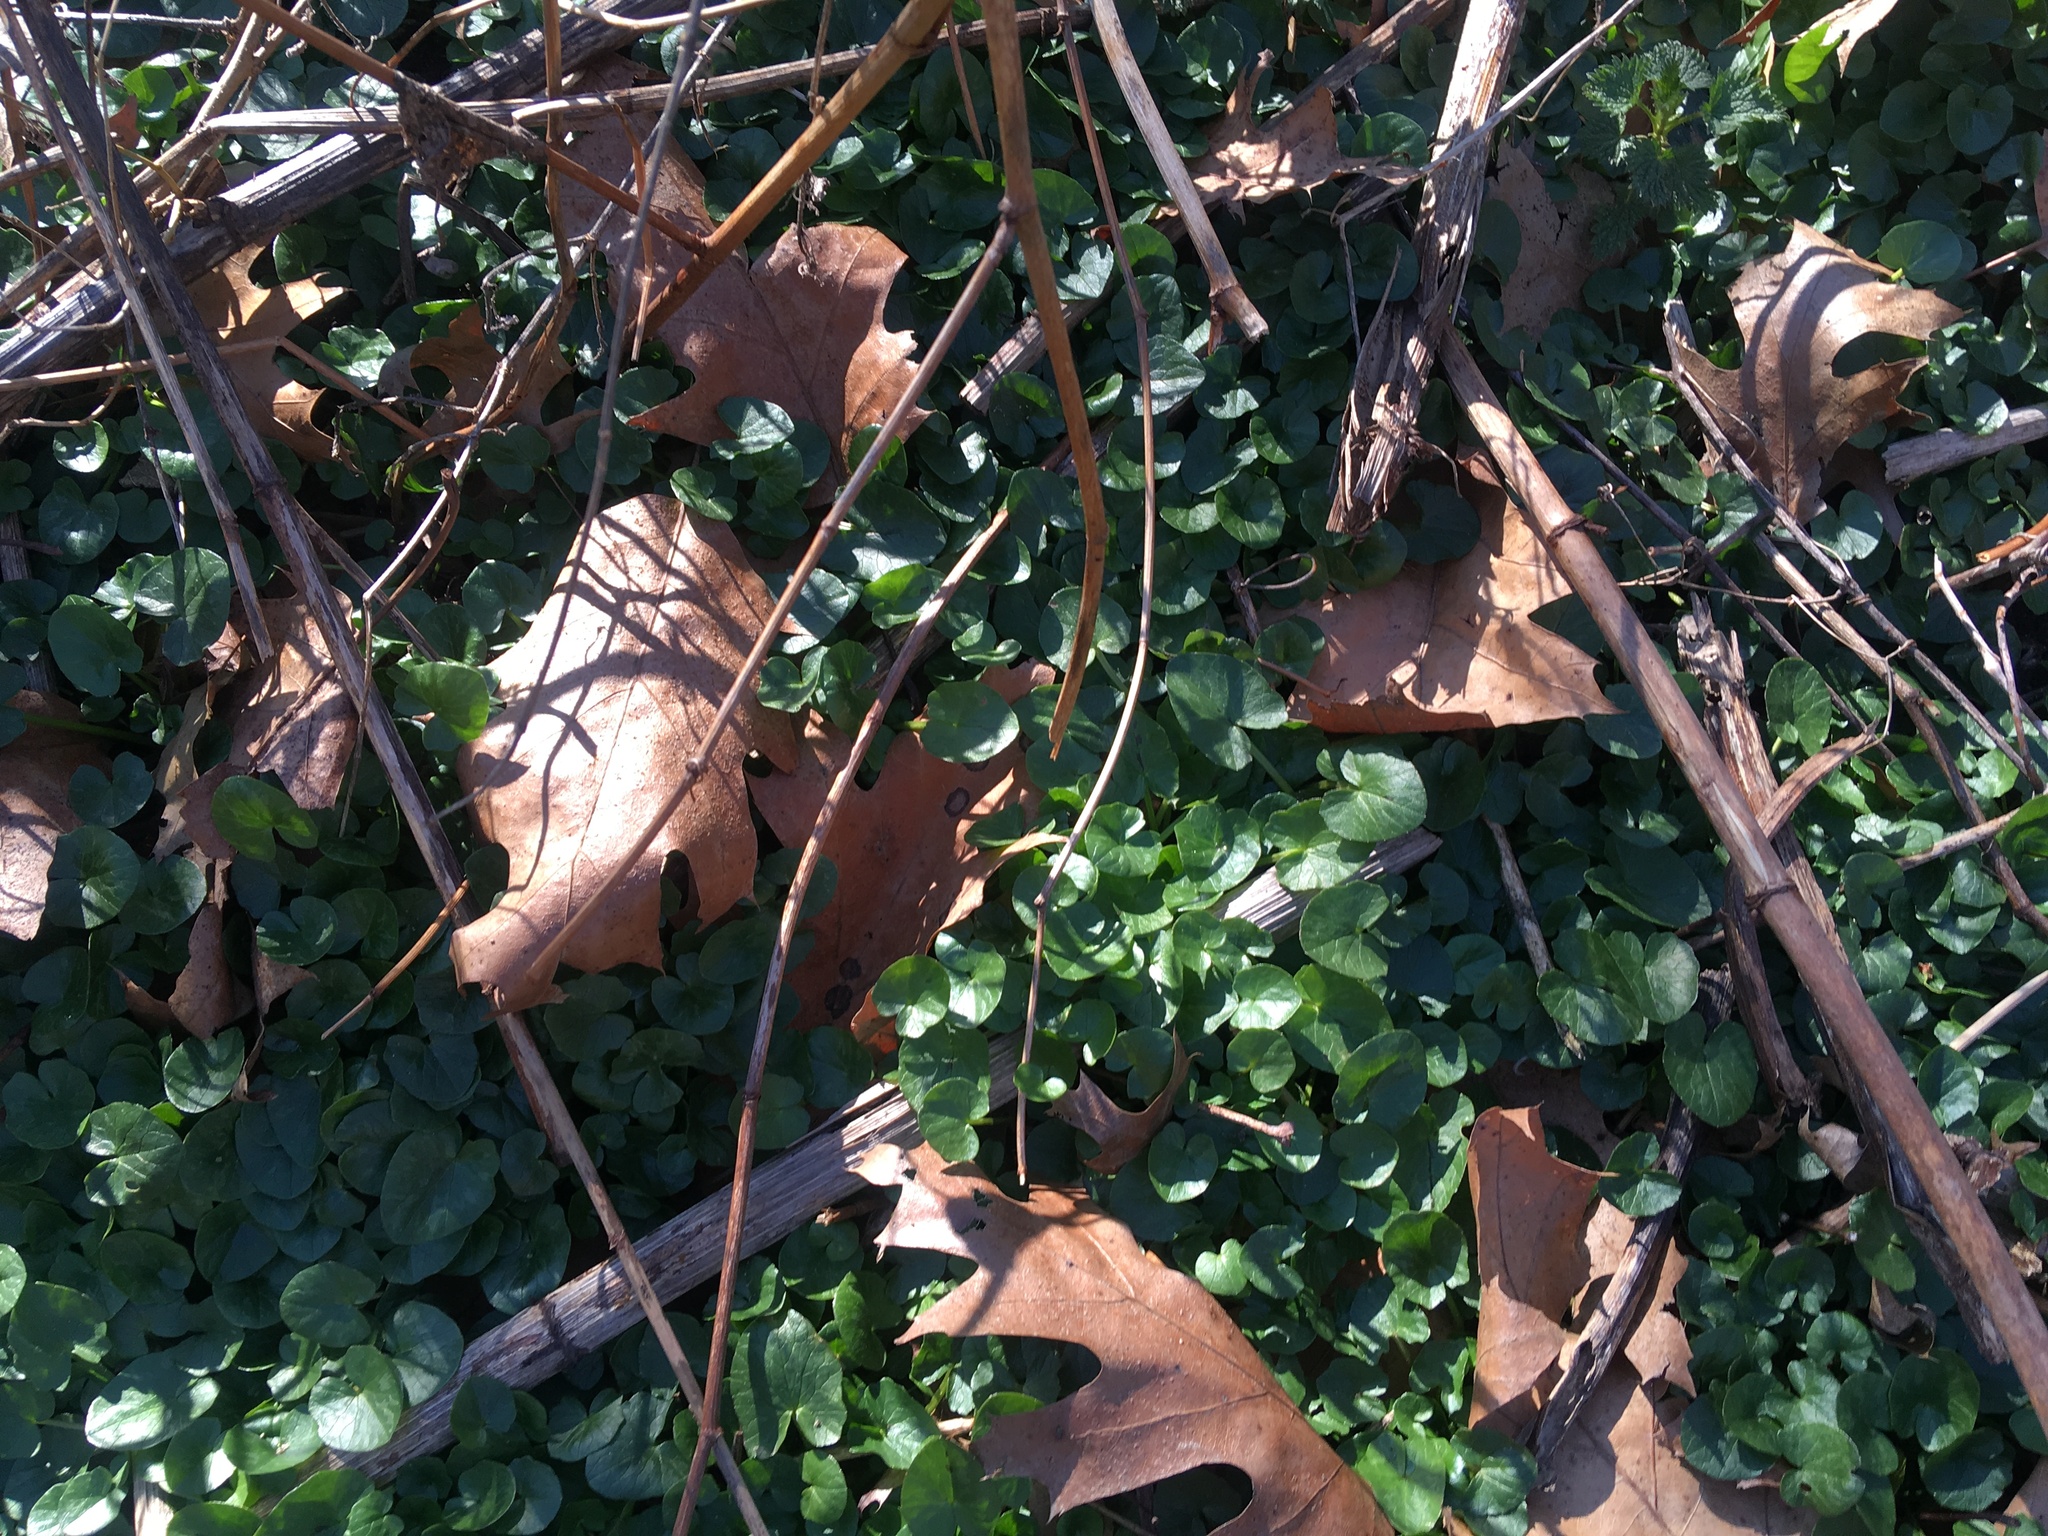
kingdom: Plantae
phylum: Tracheophyta
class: Magnoliopsida
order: Ranunculales
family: Ranunculaceae
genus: Ficaria
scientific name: Ficaria verna
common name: Lesser celandine
